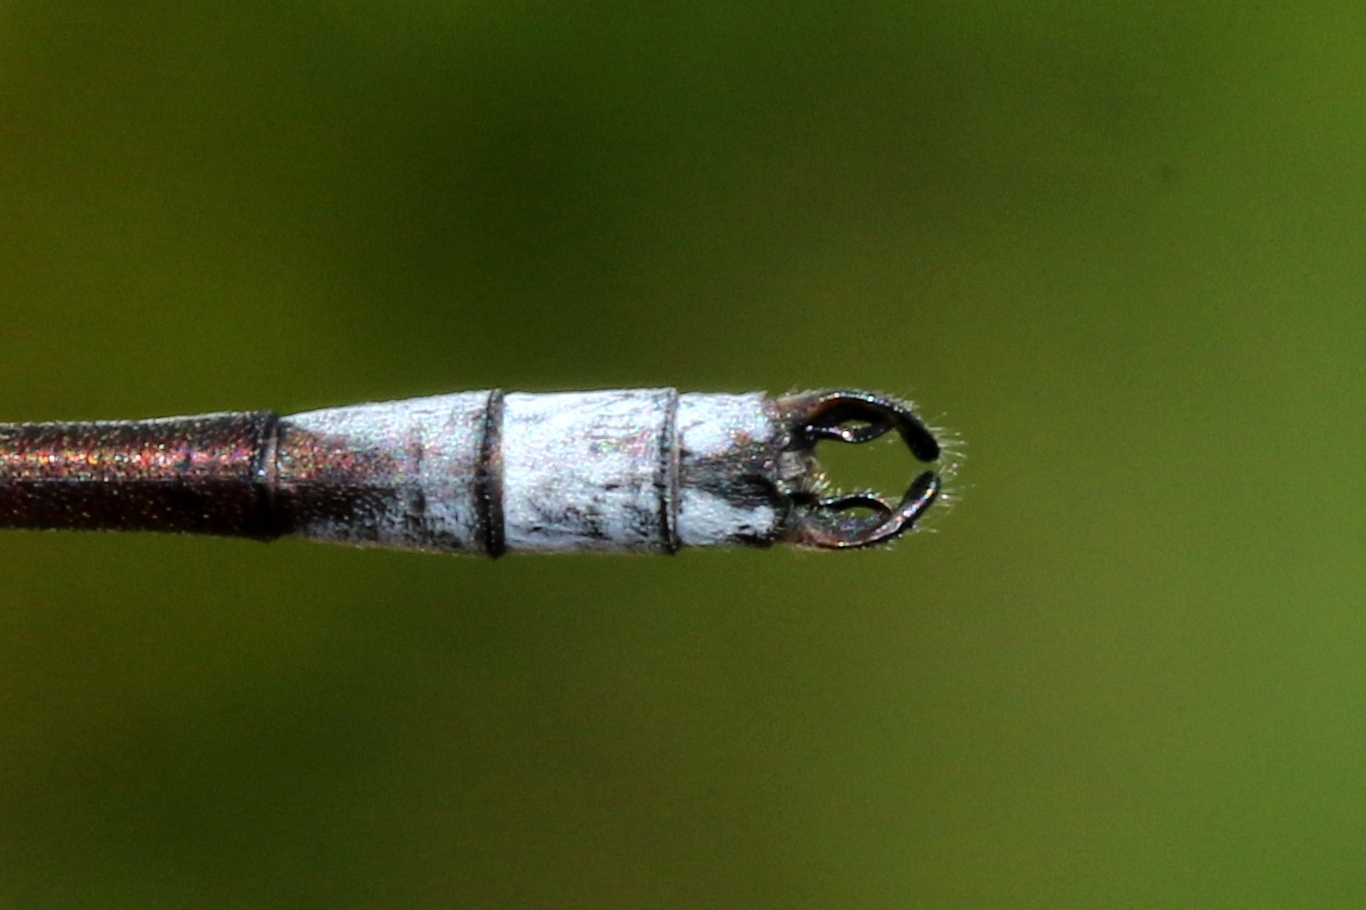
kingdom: Animalia
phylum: Arthropoda
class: Insecta
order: Odonata
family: Lestidae
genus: Lestes
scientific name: Lestes unguiculatus
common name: Lyre-tipped spreadwing
